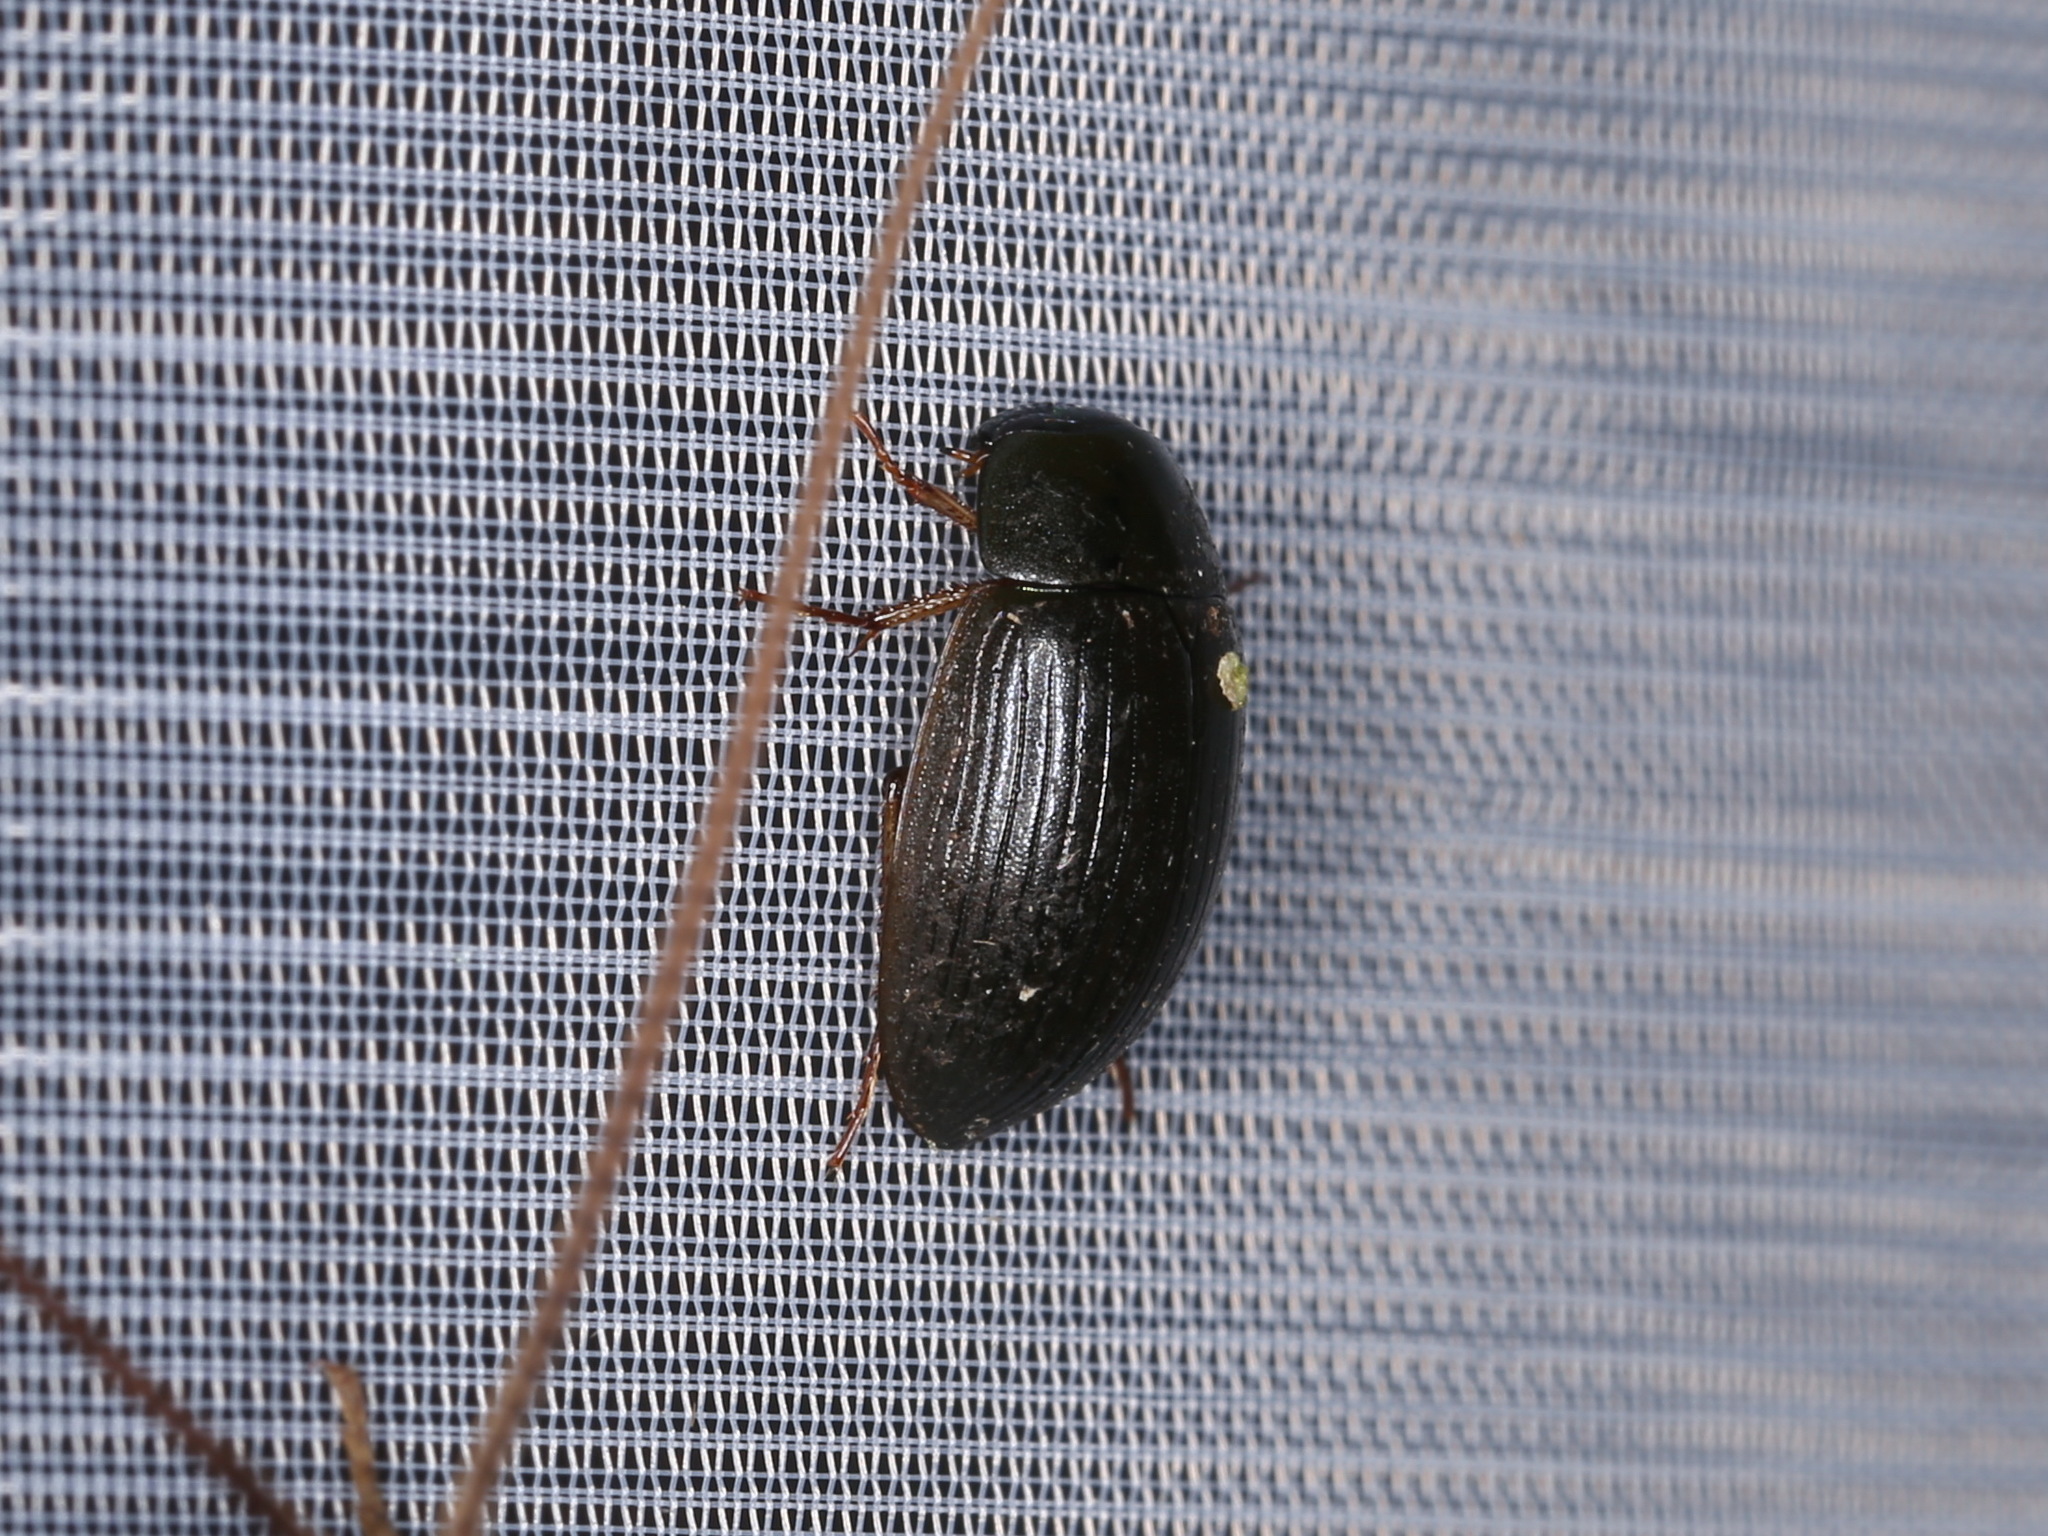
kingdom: Animalia
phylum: Arthropoda
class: Insecta
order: Coleoptera
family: Hydrophilidae
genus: Hydrobius
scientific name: Hydrobius fuscipes
